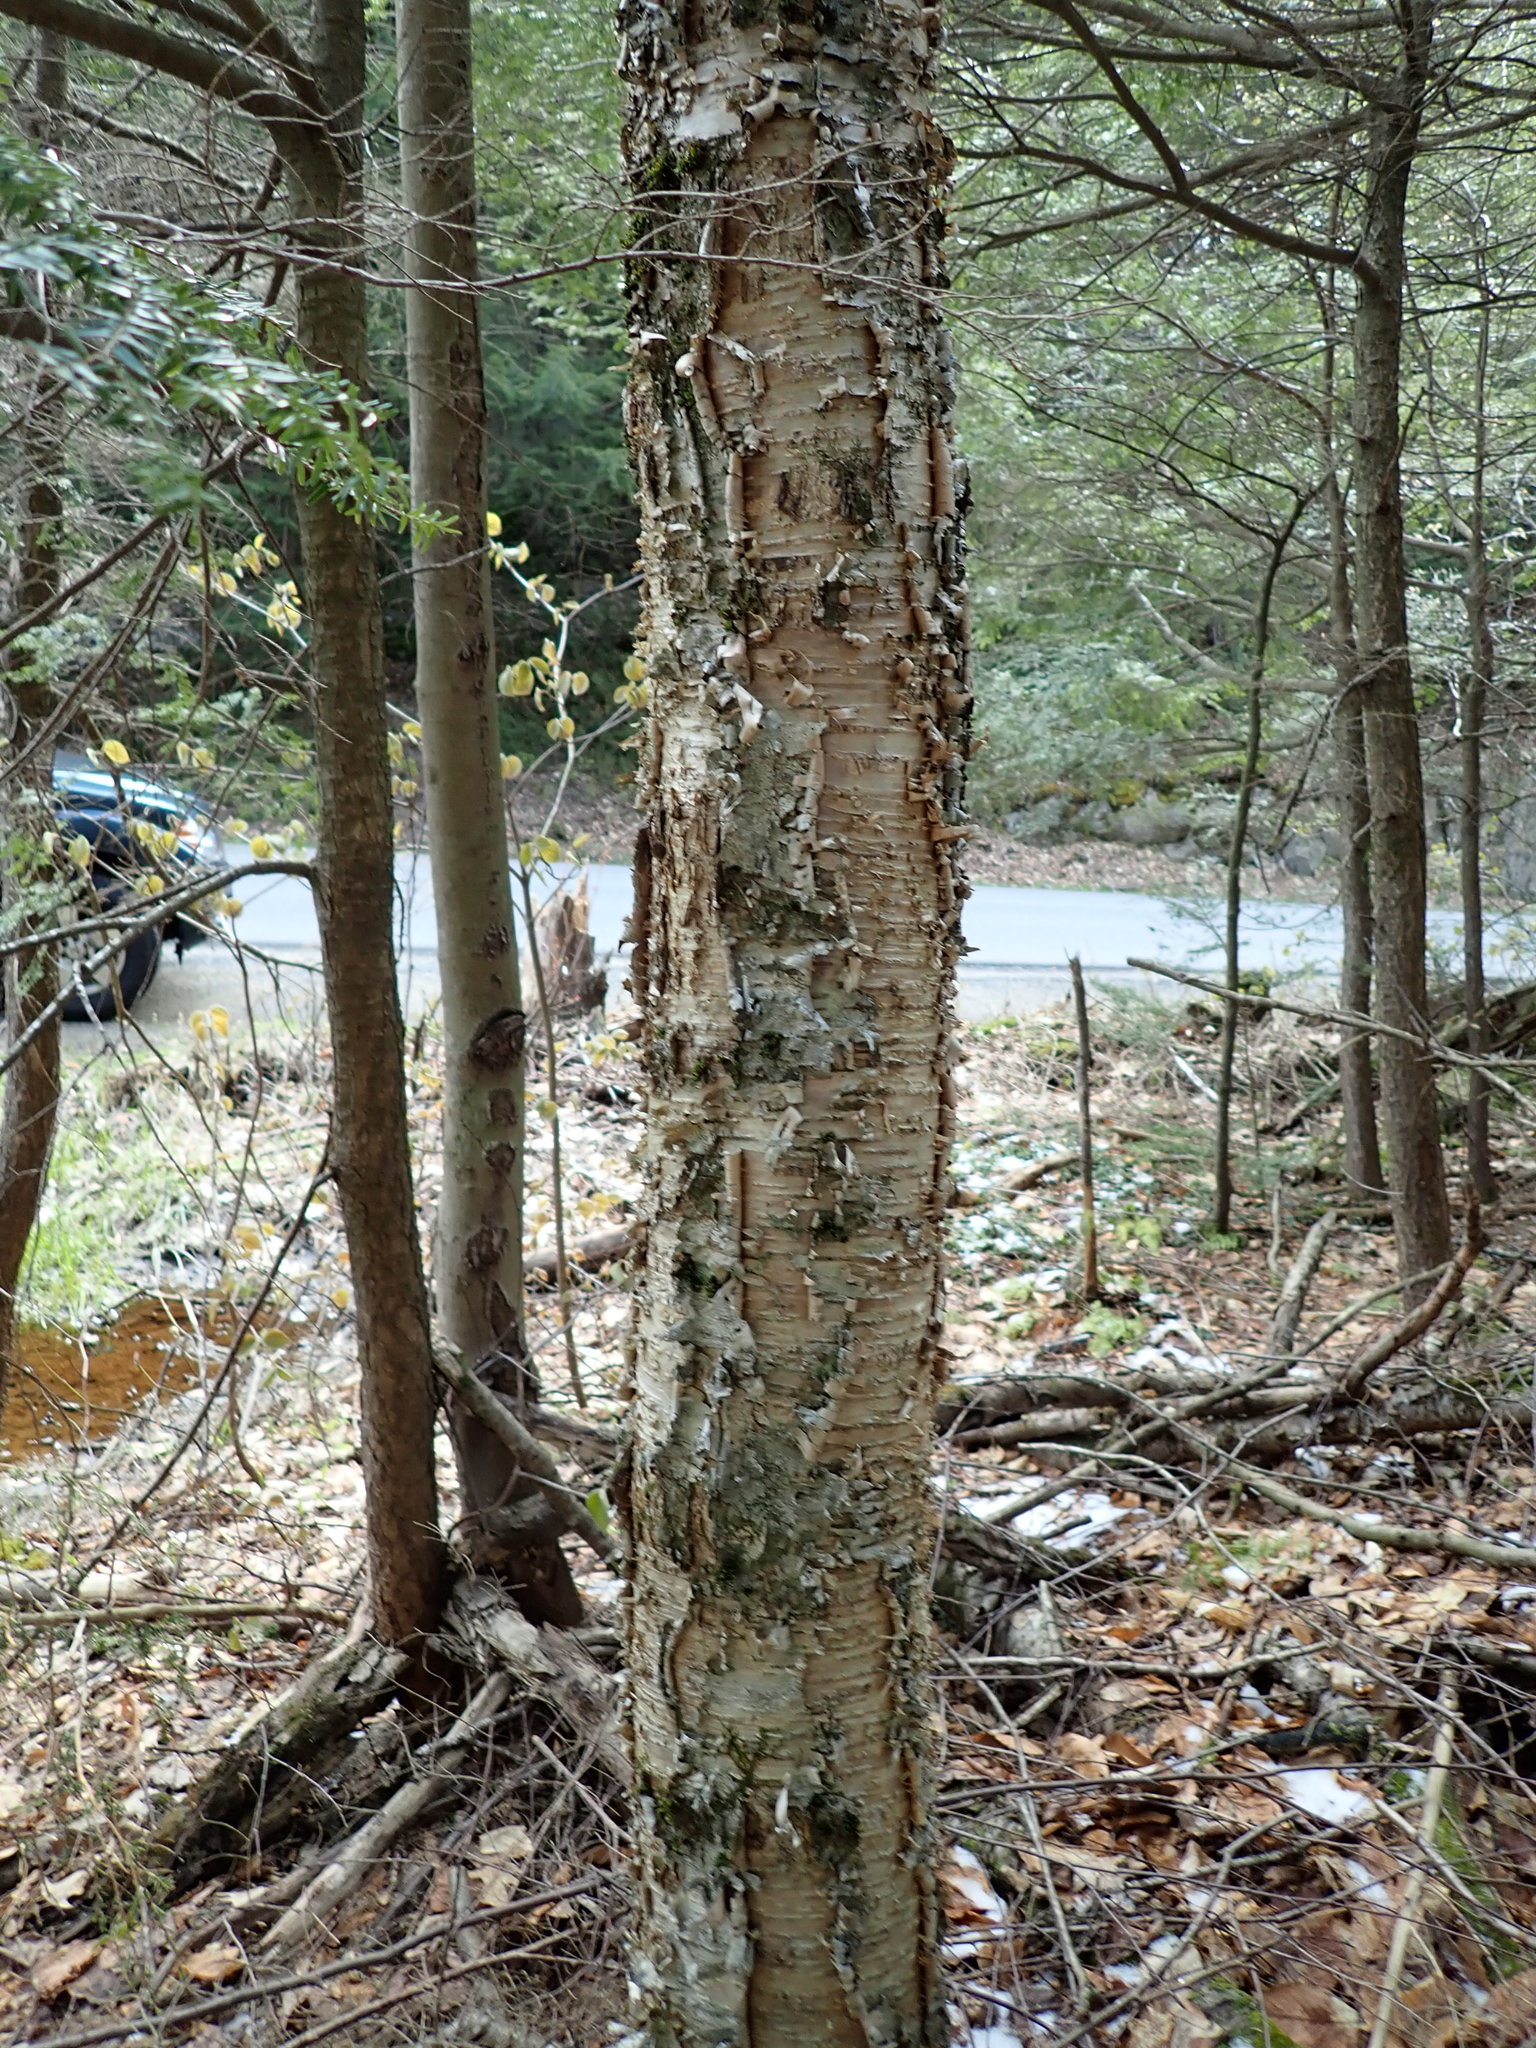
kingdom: Plantae
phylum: Tracheophyta
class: Magnoliopsida
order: Fagales
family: Betulaceae
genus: Betula
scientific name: Betula alleghaniensis
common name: Yellow birch
